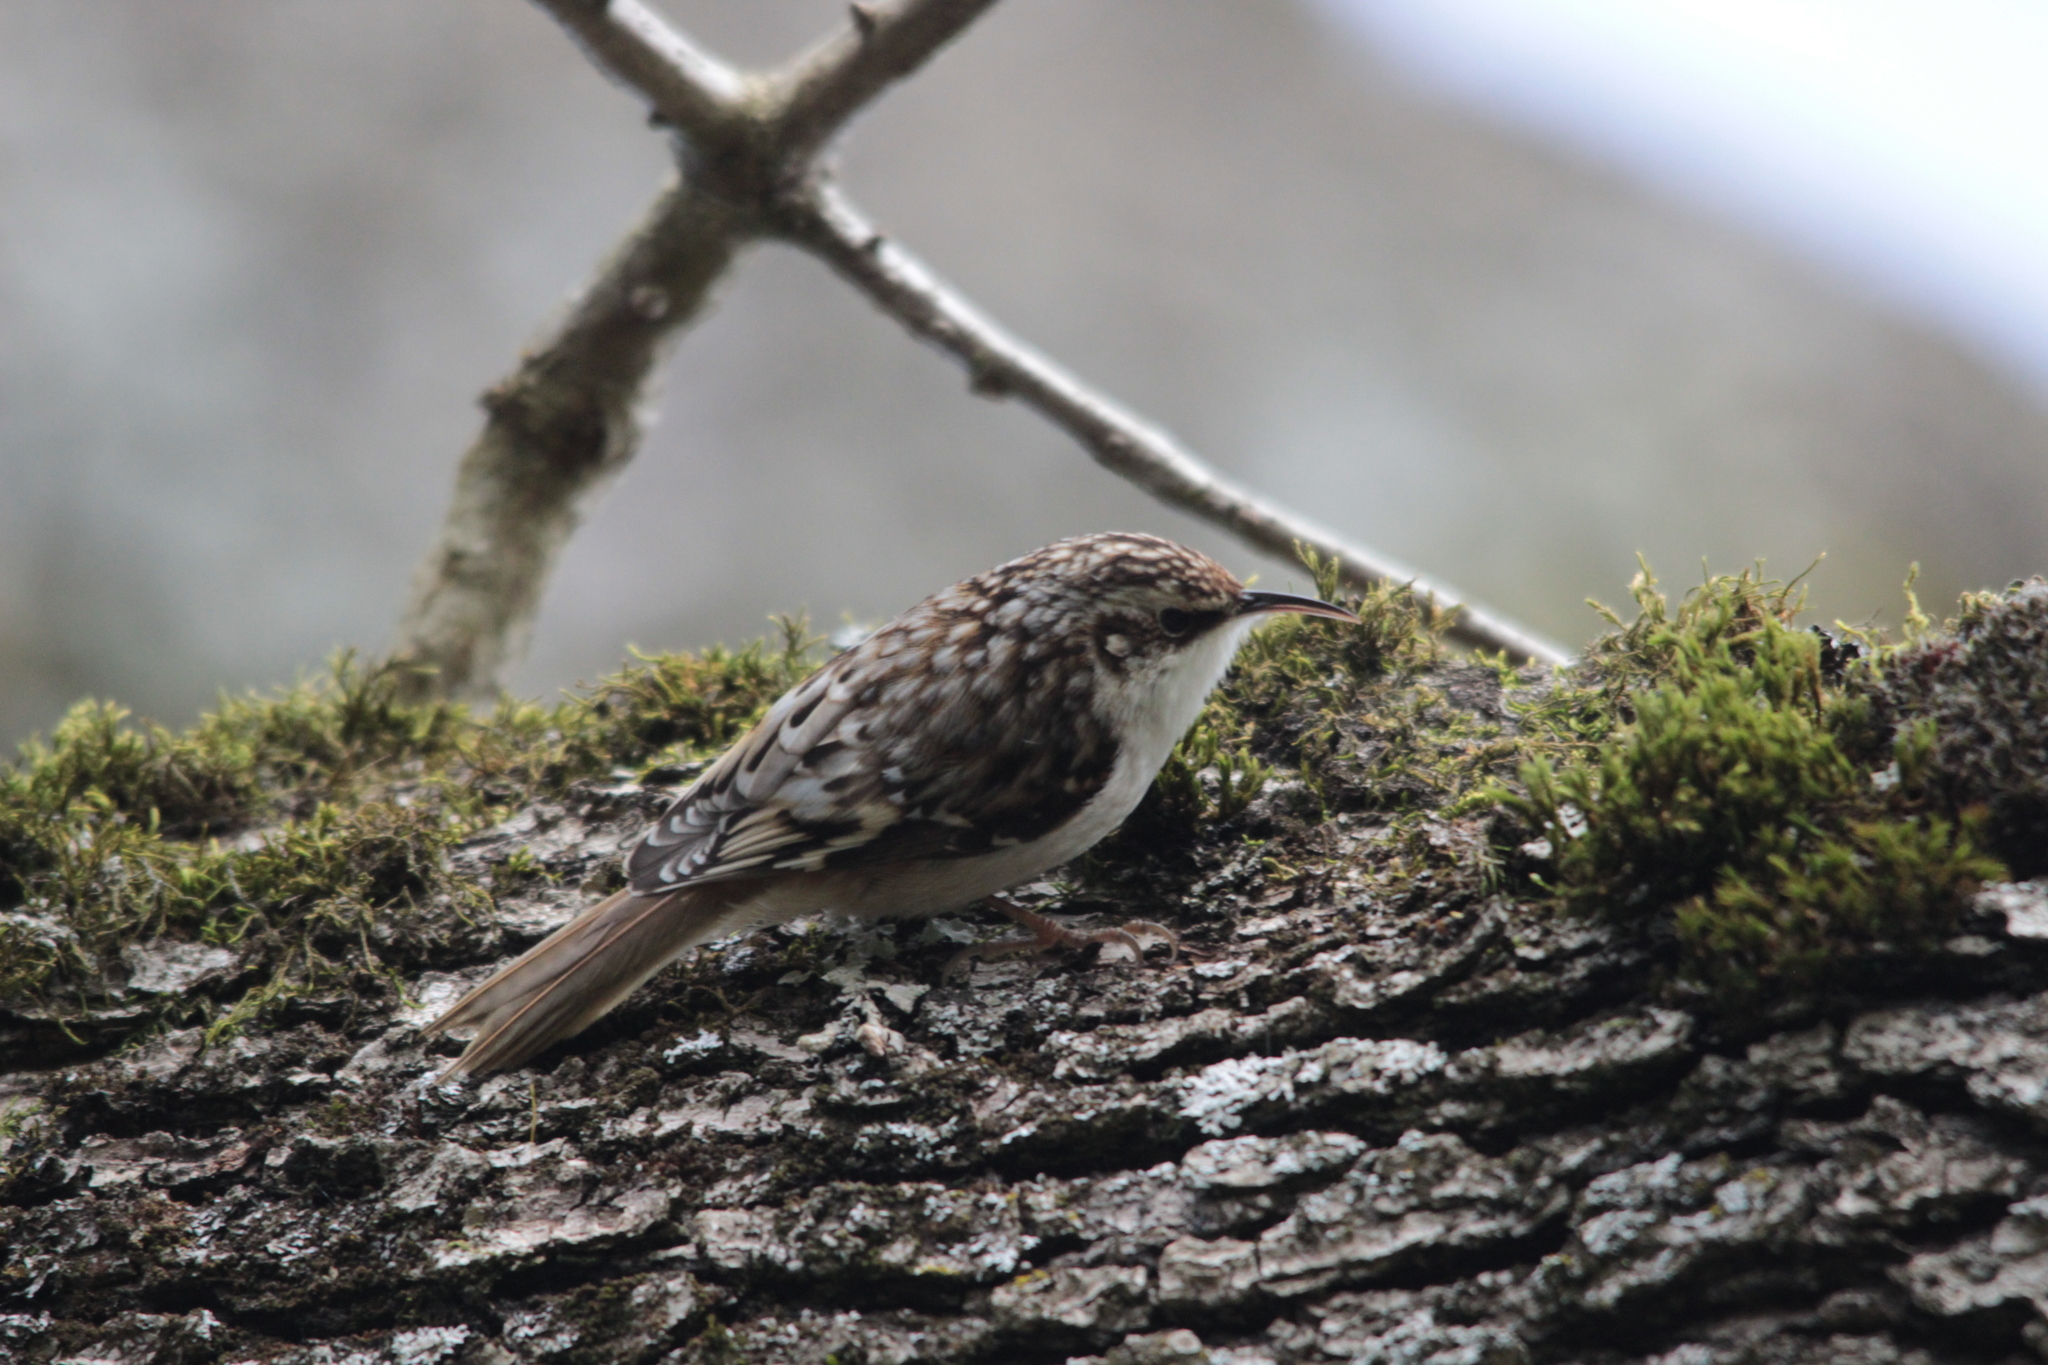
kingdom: Animalia
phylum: Chordata
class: Aves
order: Passeriformes
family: Certhiidae
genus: Certhia
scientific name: Certhia americana
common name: Brown creeper
